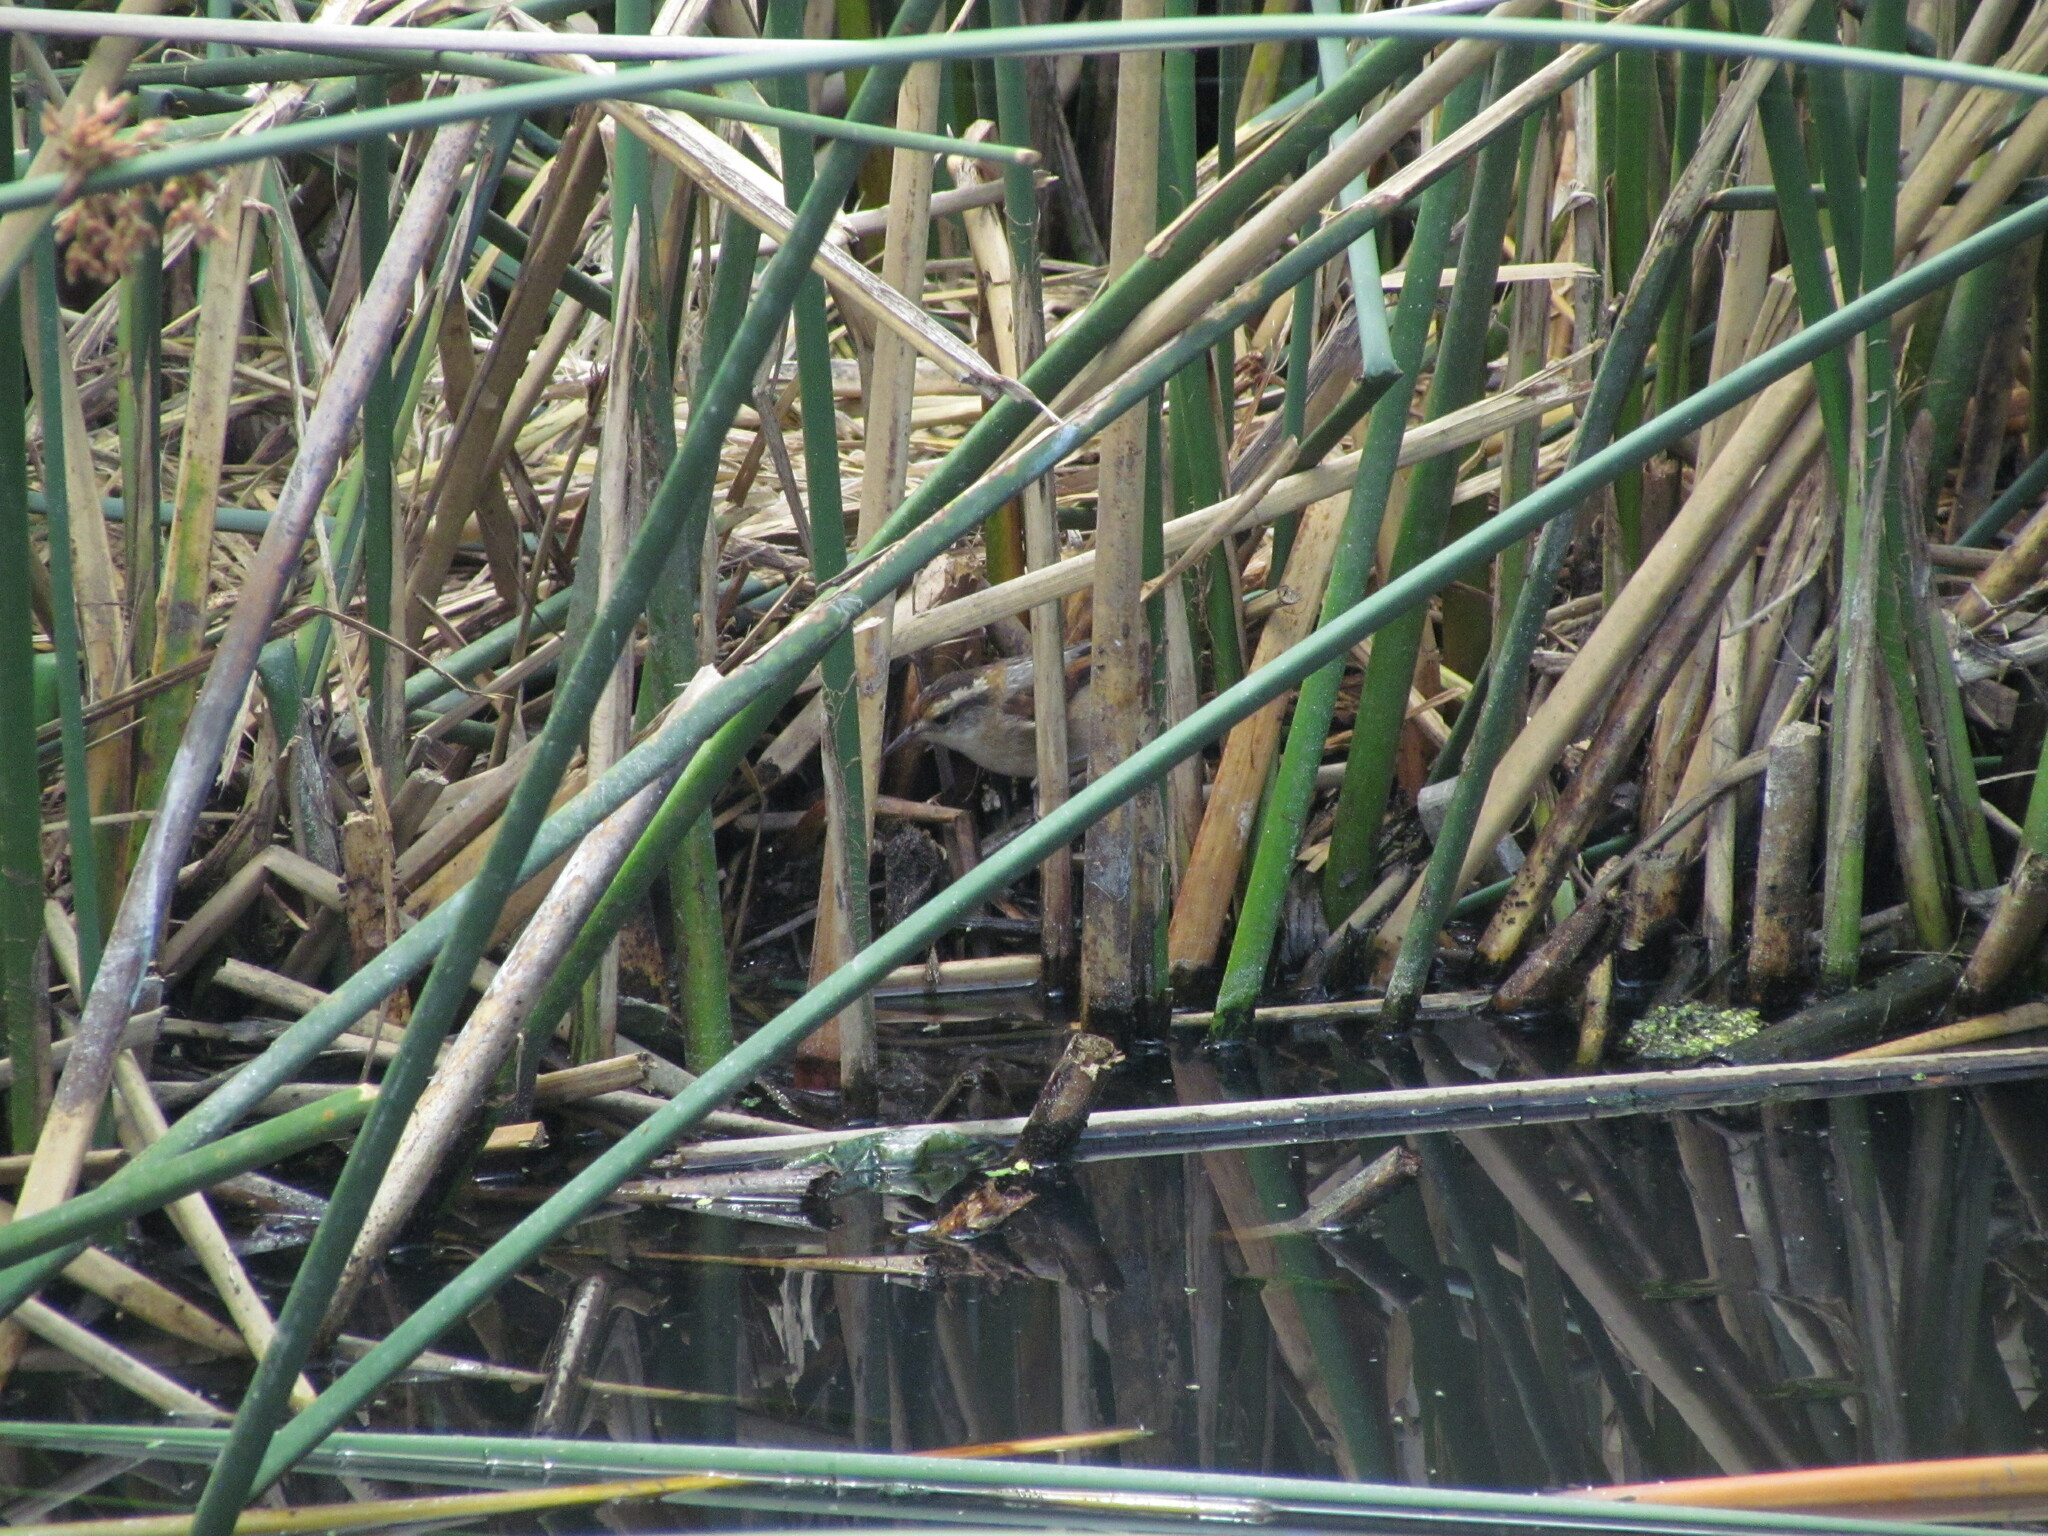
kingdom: Animalia
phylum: Chordata
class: Aves
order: Passeriformes
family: Furnariidae
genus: Phleocryptes
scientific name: Phleocryptes melanops
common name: Wren-like rushbird
